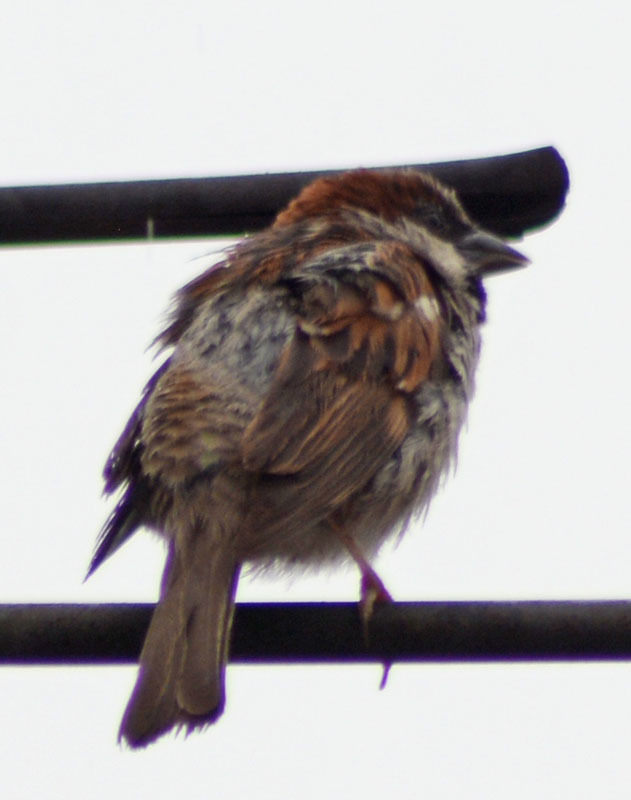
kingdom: Animalia
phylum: Chordata
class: Aves
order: Passeriformes
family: Passeridae
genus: Passer
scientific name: Passer domesticus
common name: House sparrow
